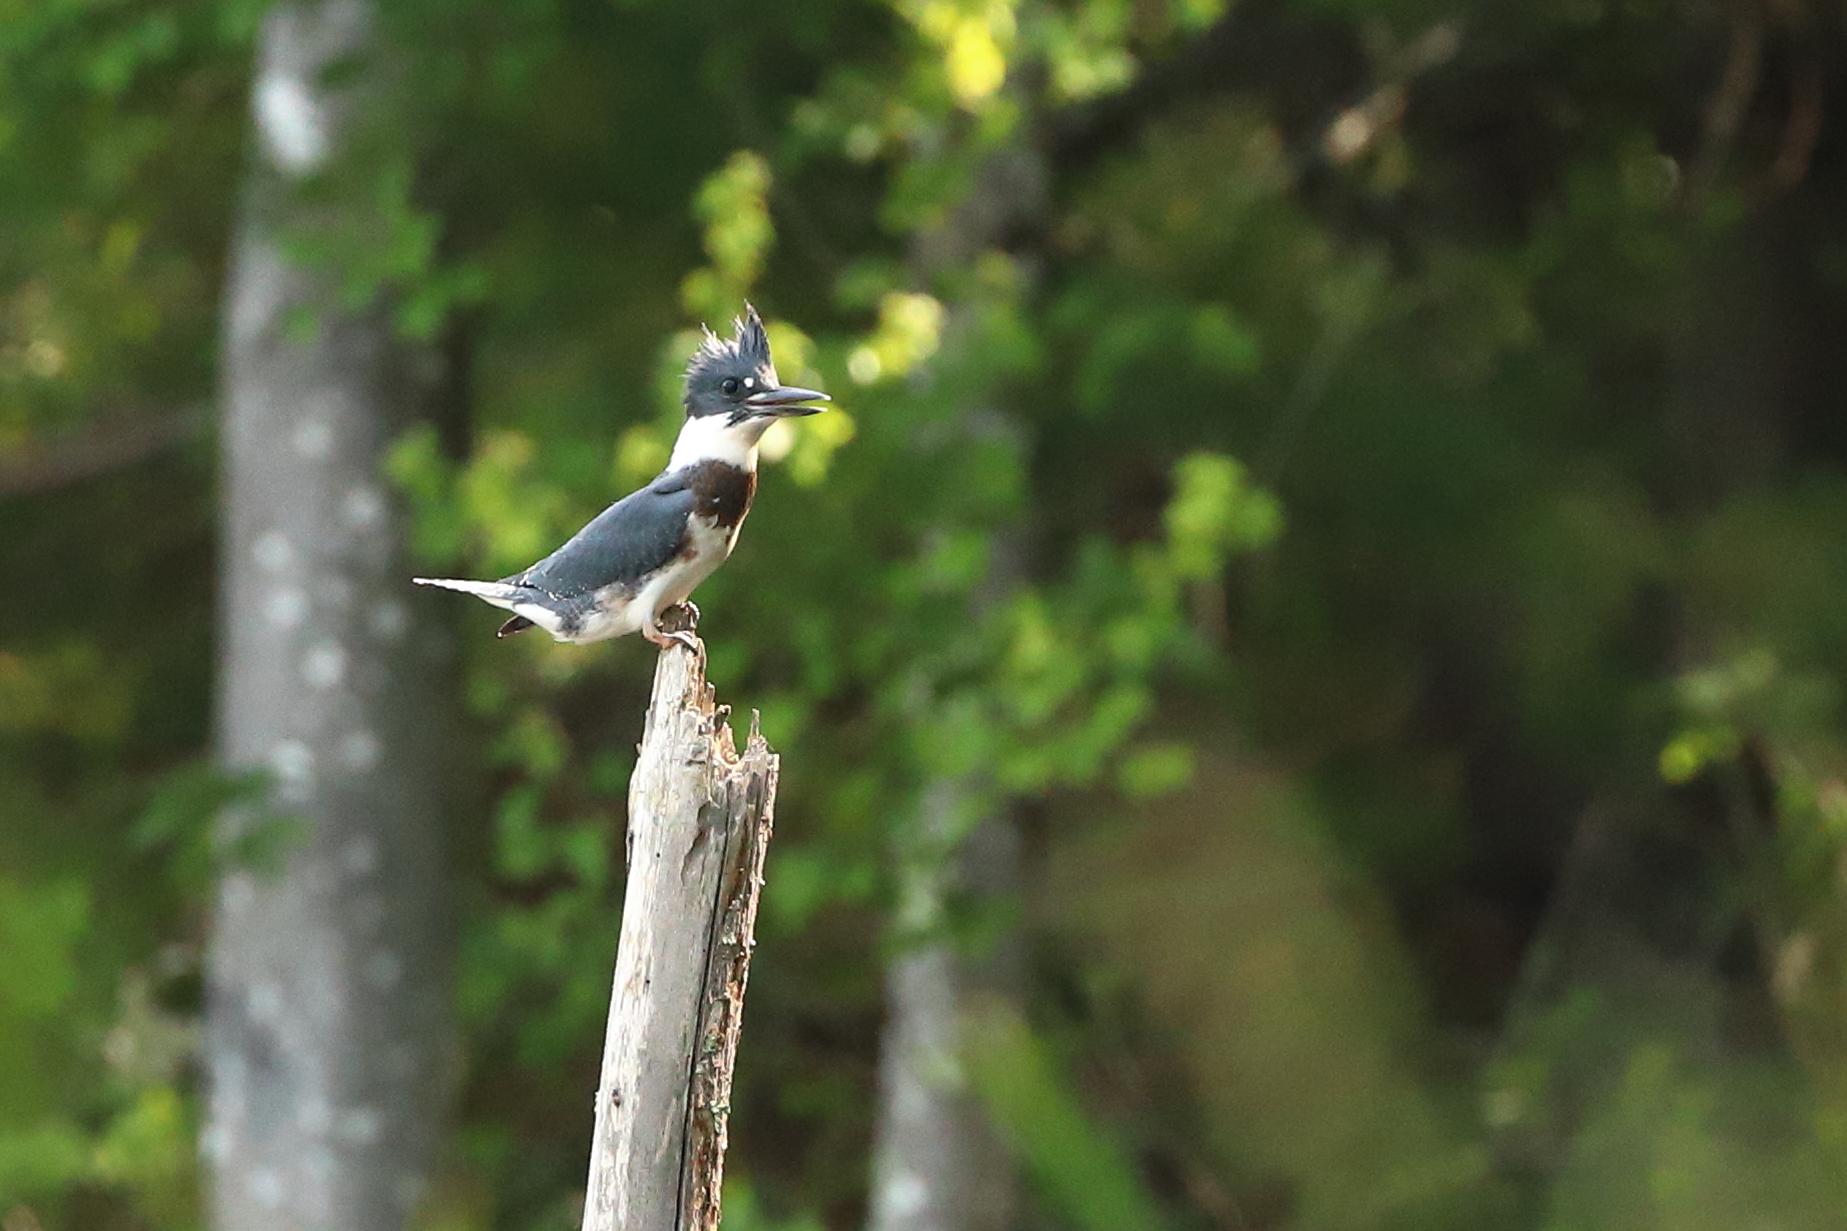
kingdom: Animalia
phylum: Chordata
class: Aves
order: Coraciiformes
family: Alcedinidae
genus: Megaceryle
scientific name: Megaceryle alcyon
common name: Belted kingfisher
